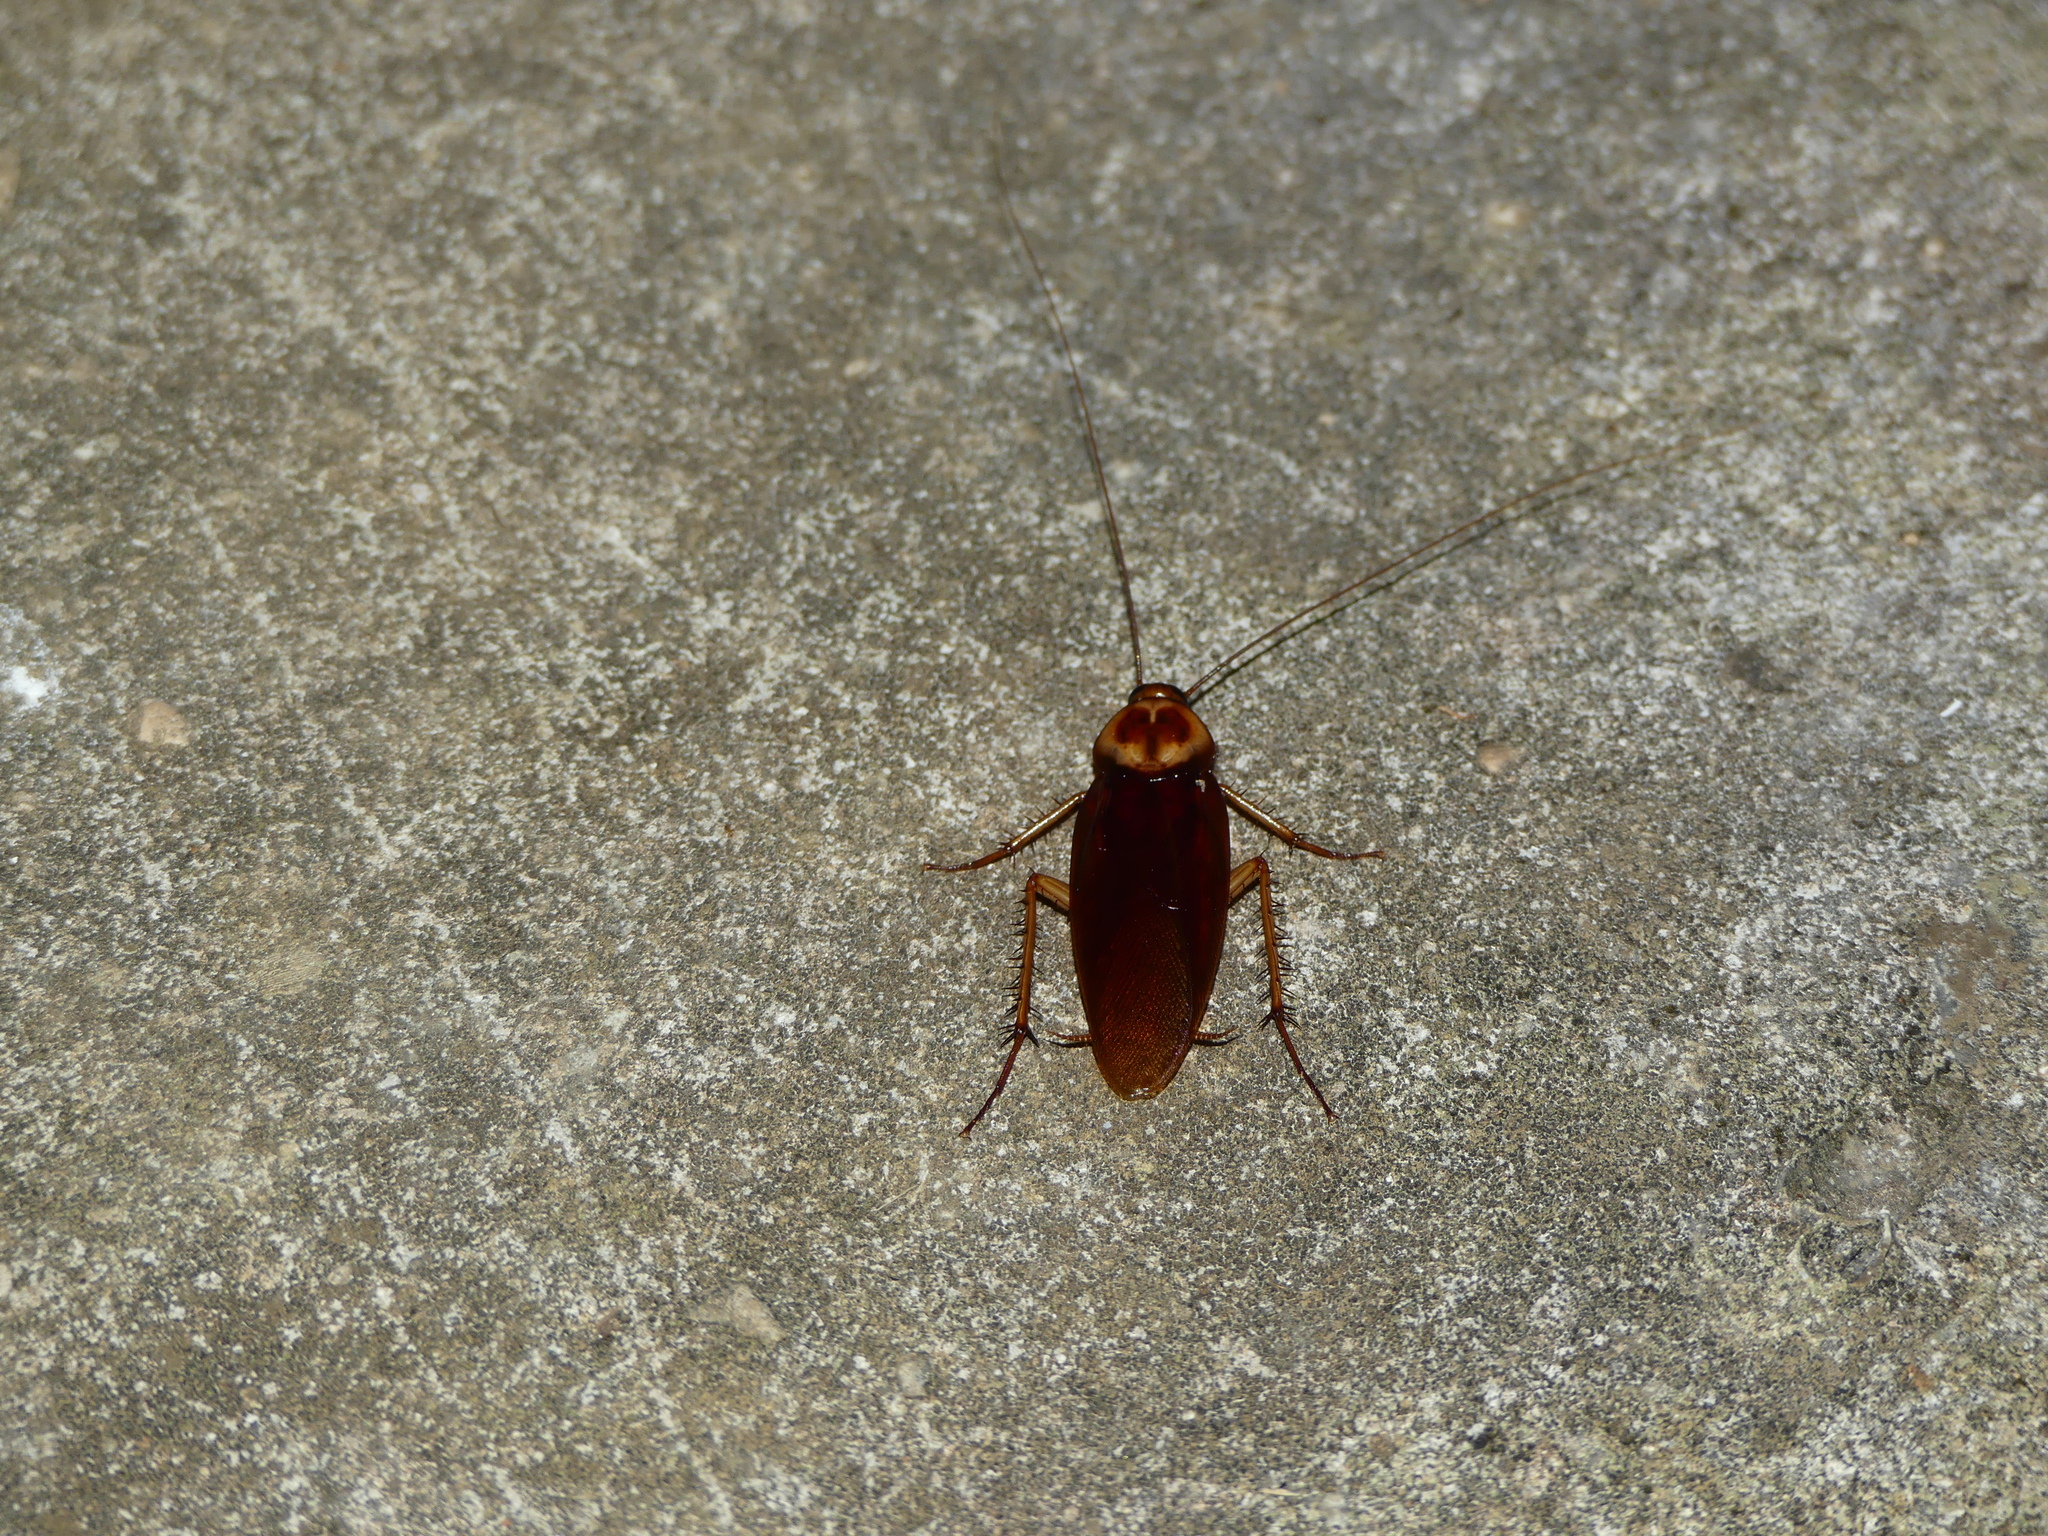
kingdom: Animalia
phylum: Arthropoda
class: Insecta
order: Blattodea
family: Blattidae
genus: Periplaneta
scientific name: Periplaneta americana
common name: American cockroach
